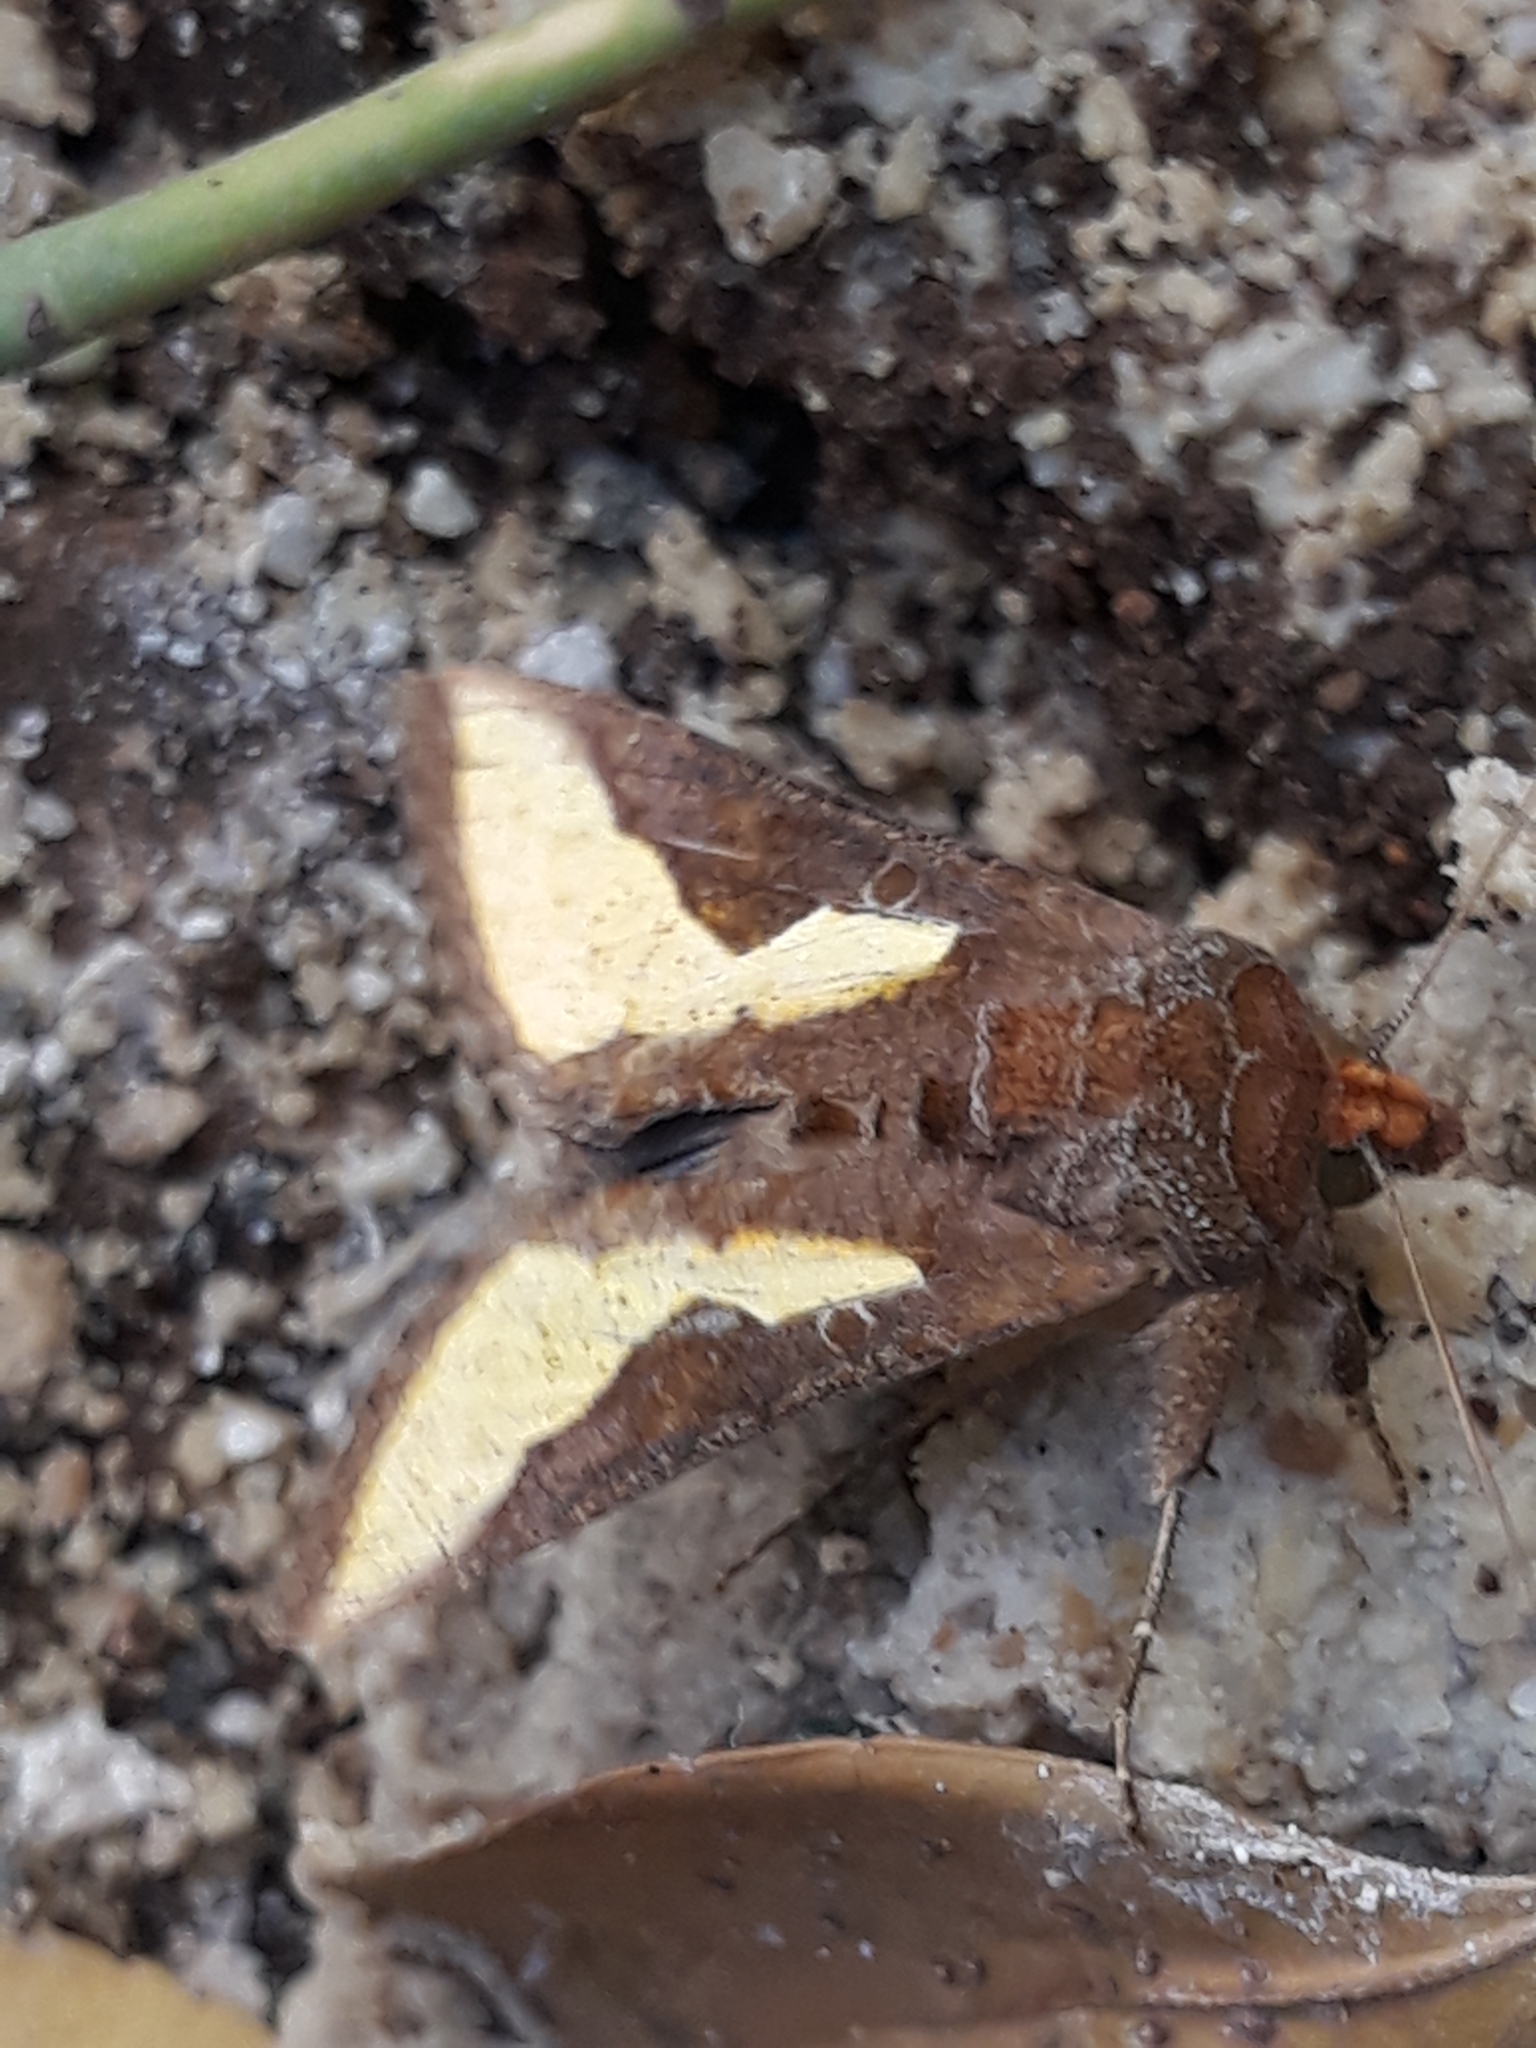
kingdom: Animalia
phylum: Arthropoda
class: Insecta
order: Lepidoptera
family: Noctuidae
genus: Thysanoplusia
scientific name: Thysanoplusia orichalcea
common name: Slender burnished brass, golden plusia
